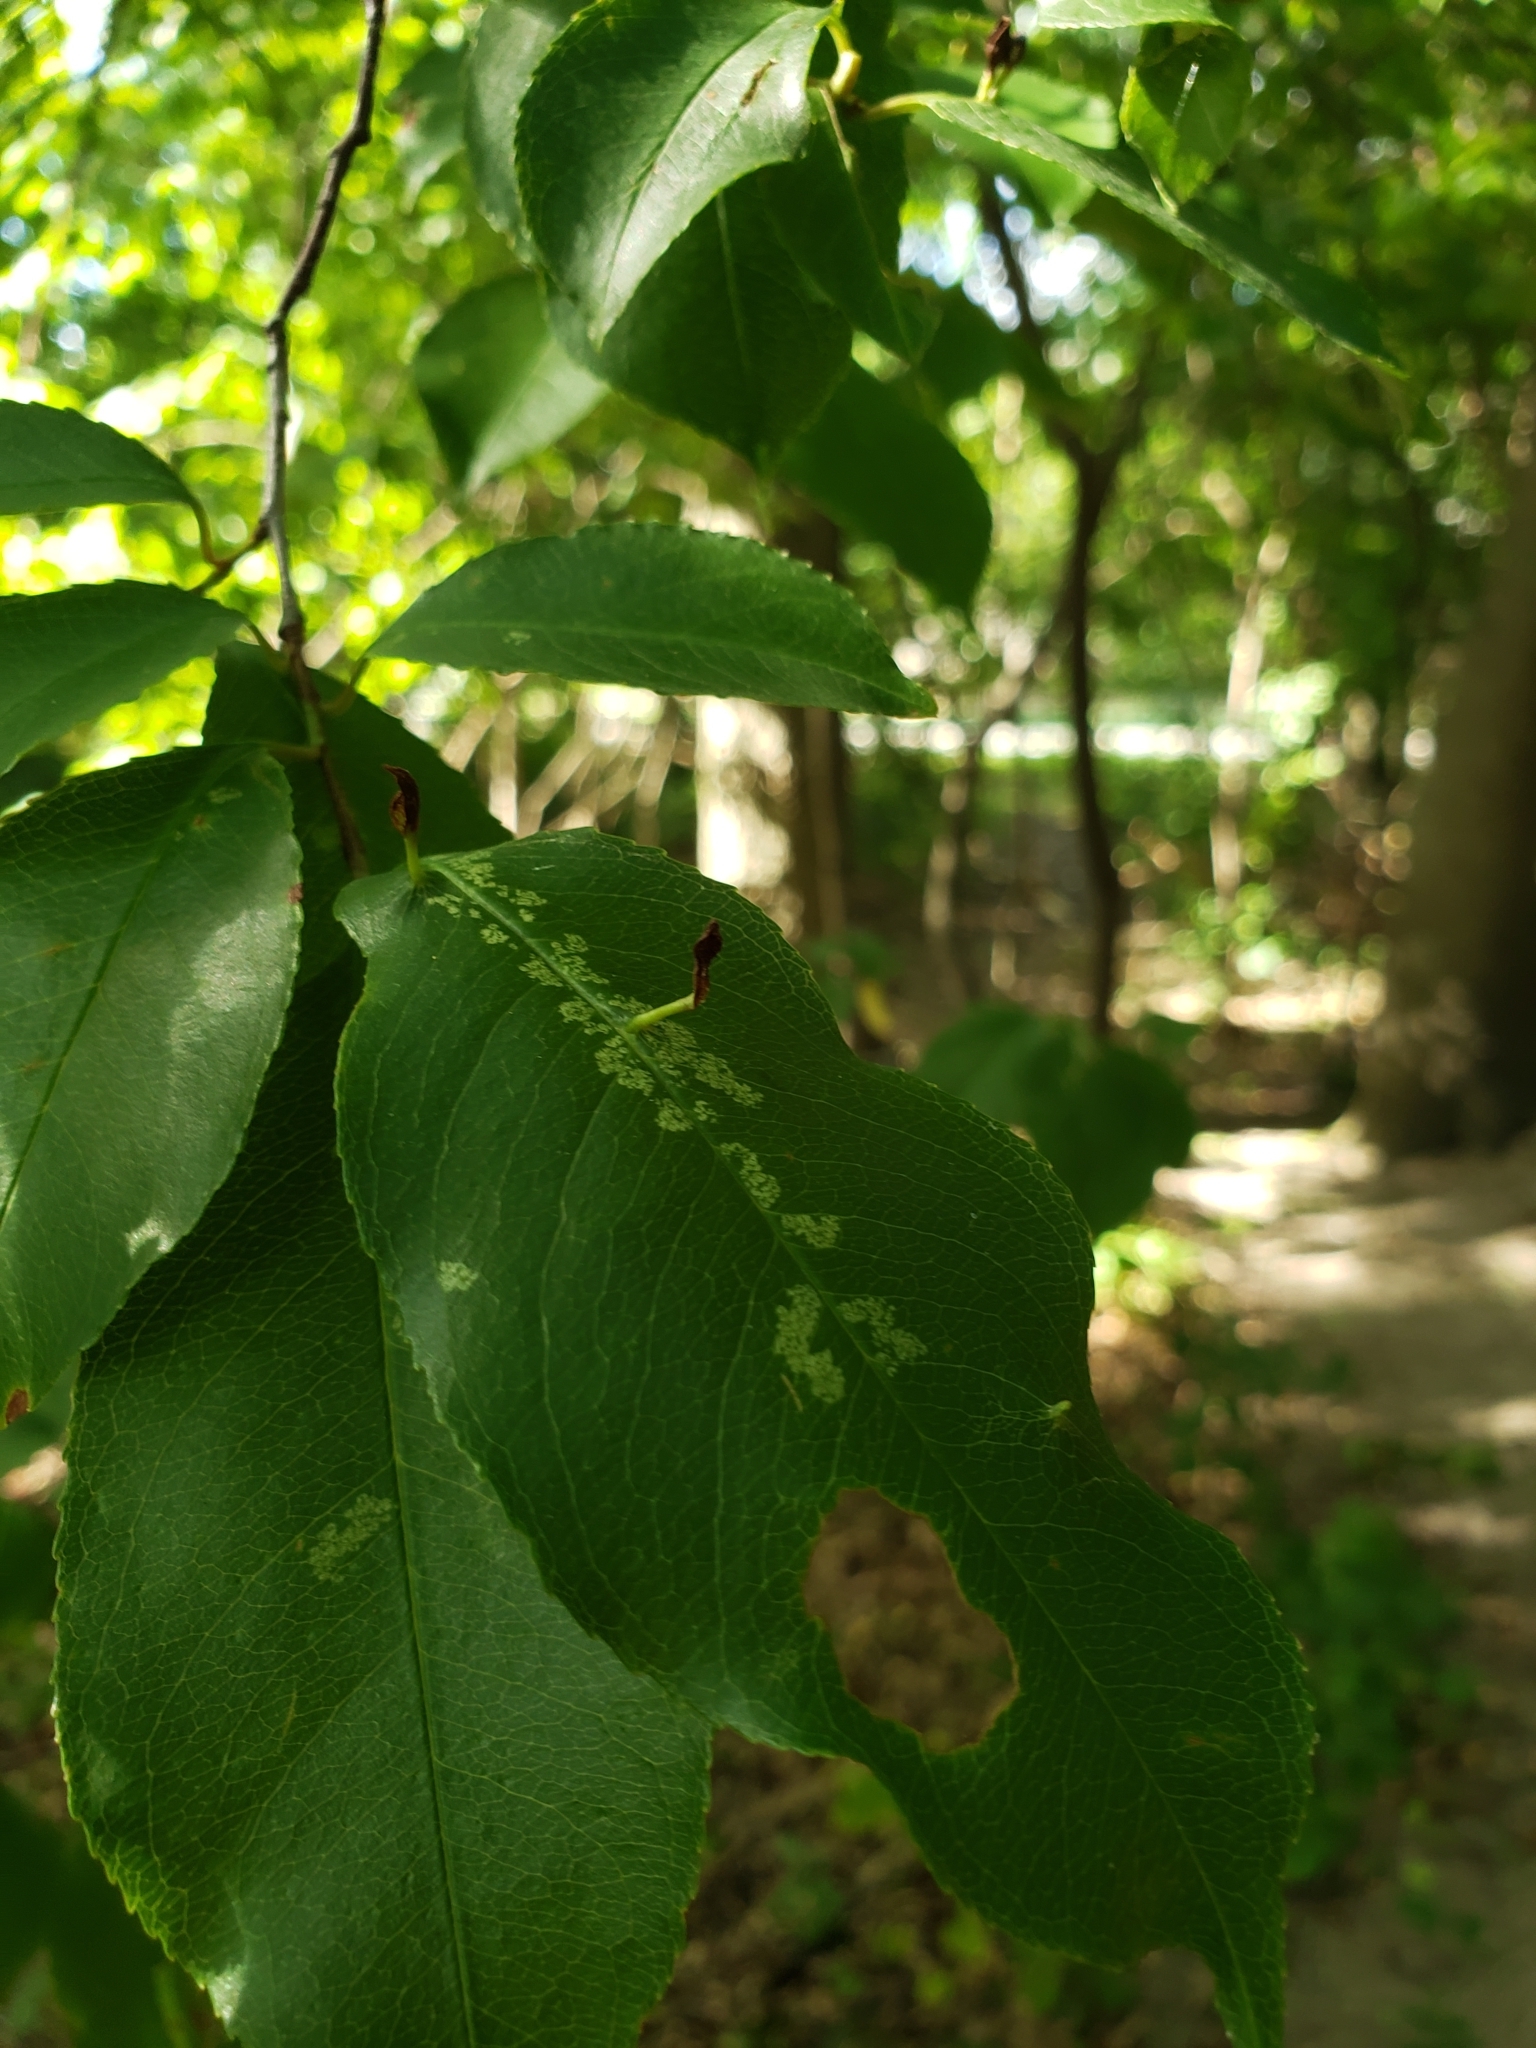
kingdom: Animalia
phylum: Arthropoda
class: Arachnida
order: Trombidiformes
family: Eriophyidae
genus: Eriophyes
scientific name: Eriophyes
